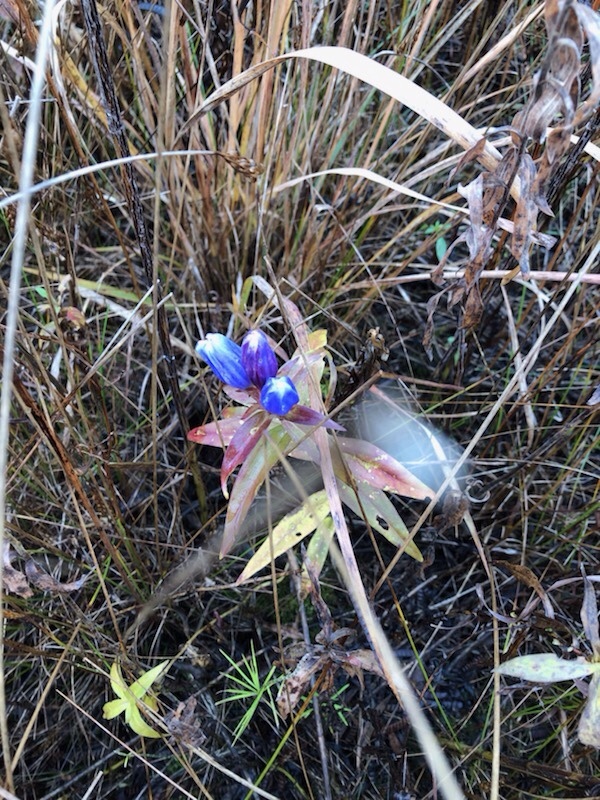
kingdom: Plantae
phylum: Tracheophyta
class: Magnoliopsida
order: Gentianales
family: Gentianaceae
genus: Gentiana
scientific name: Gentiana andrewsii
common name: Bottle gentian
